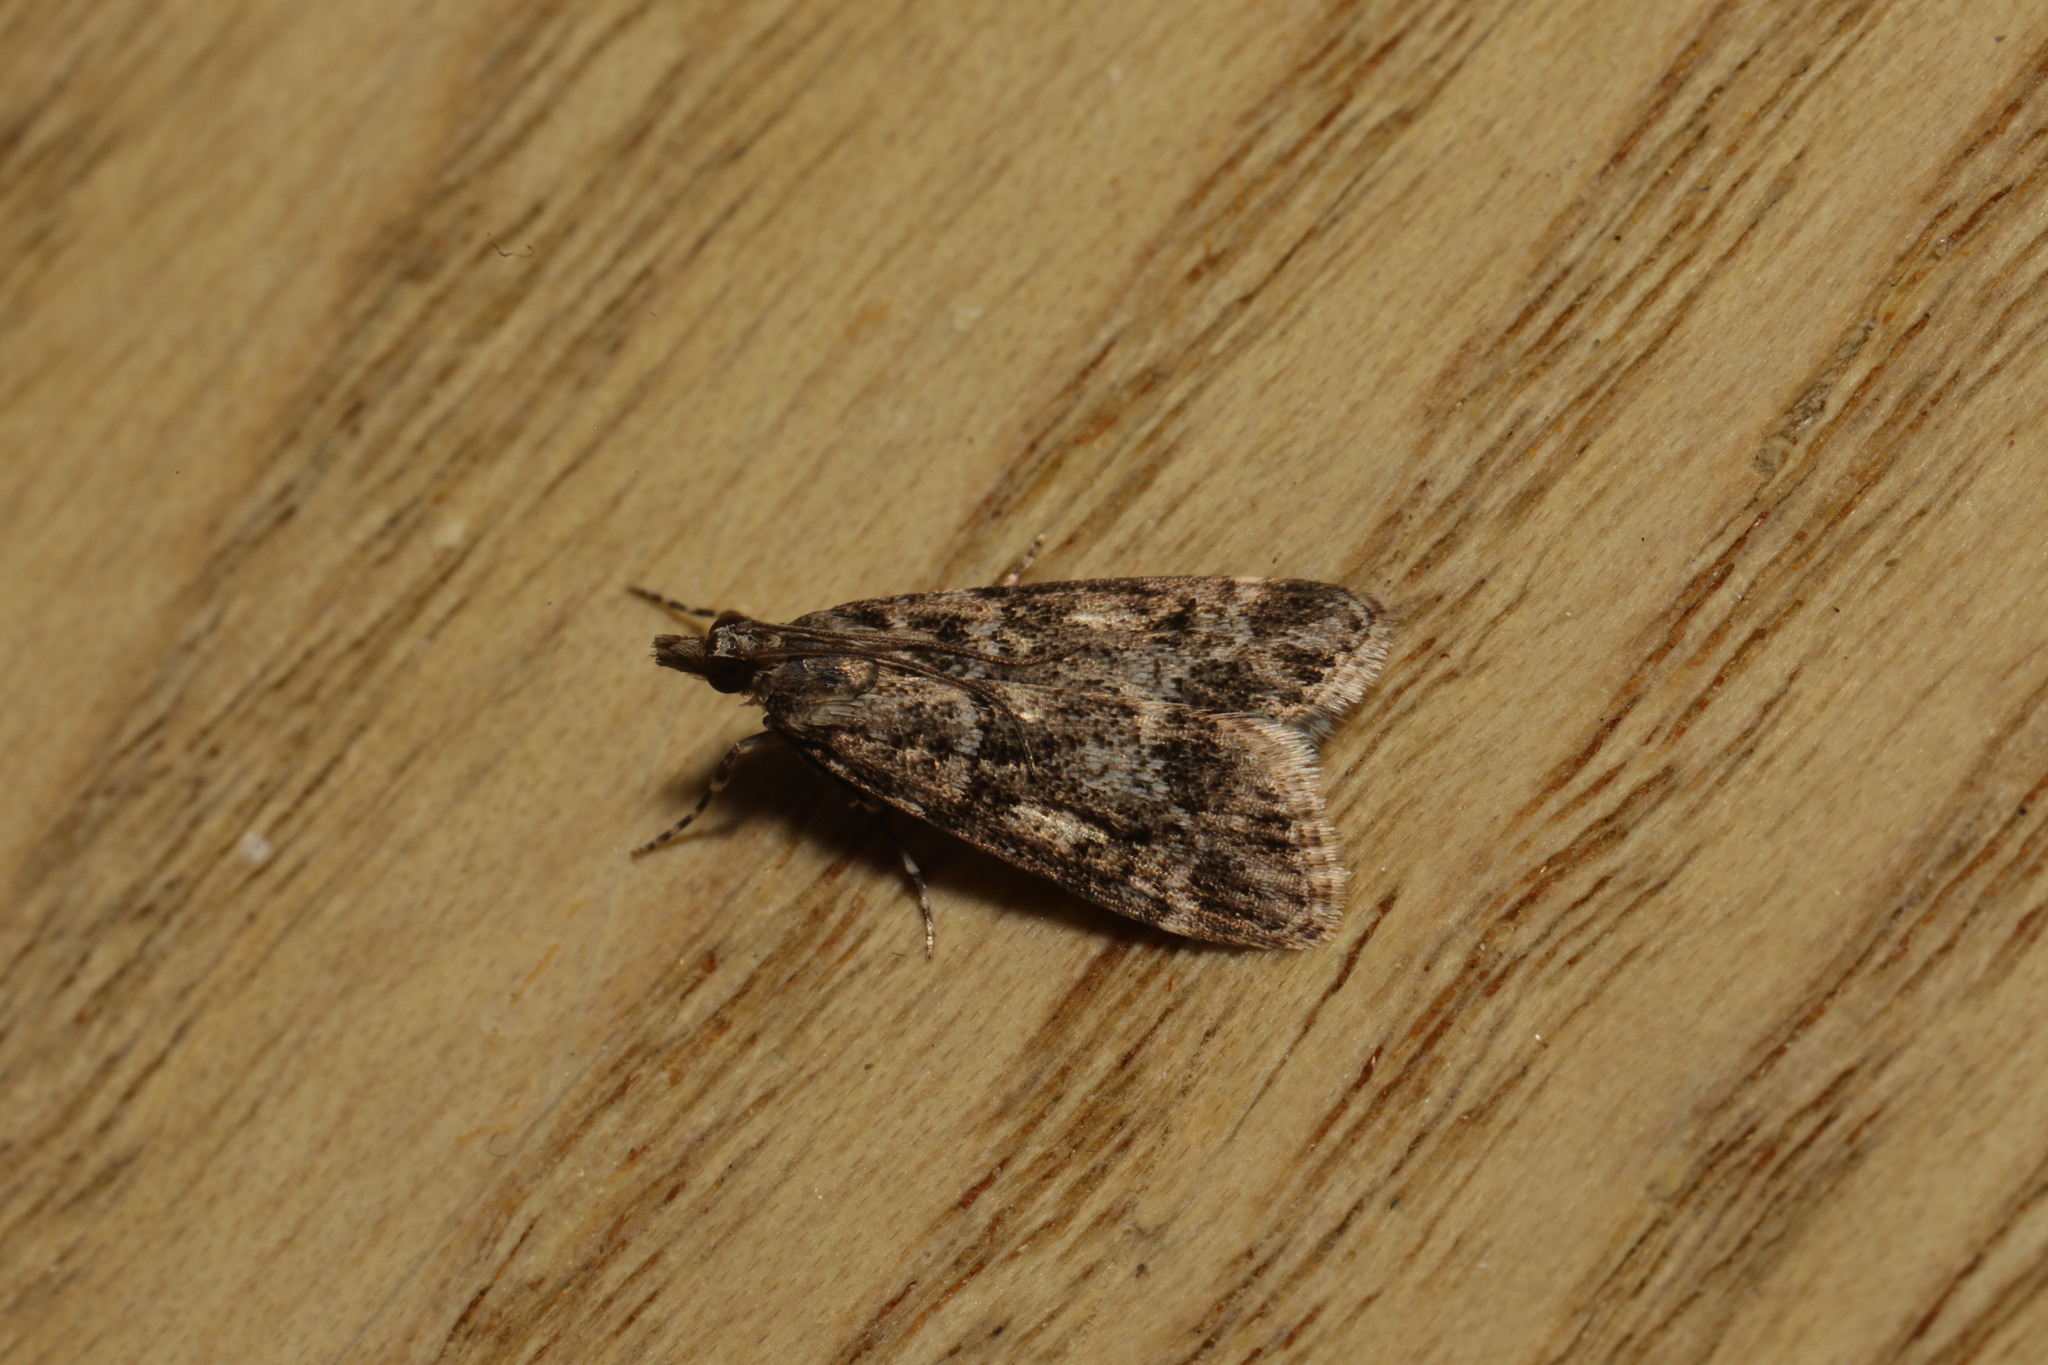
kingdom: Animalia
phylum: Arthropoda
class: Insecta
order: Lepidoptera
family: Crambidae
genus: Eudonia
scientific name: Eudonia mercurella
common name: Small grey
